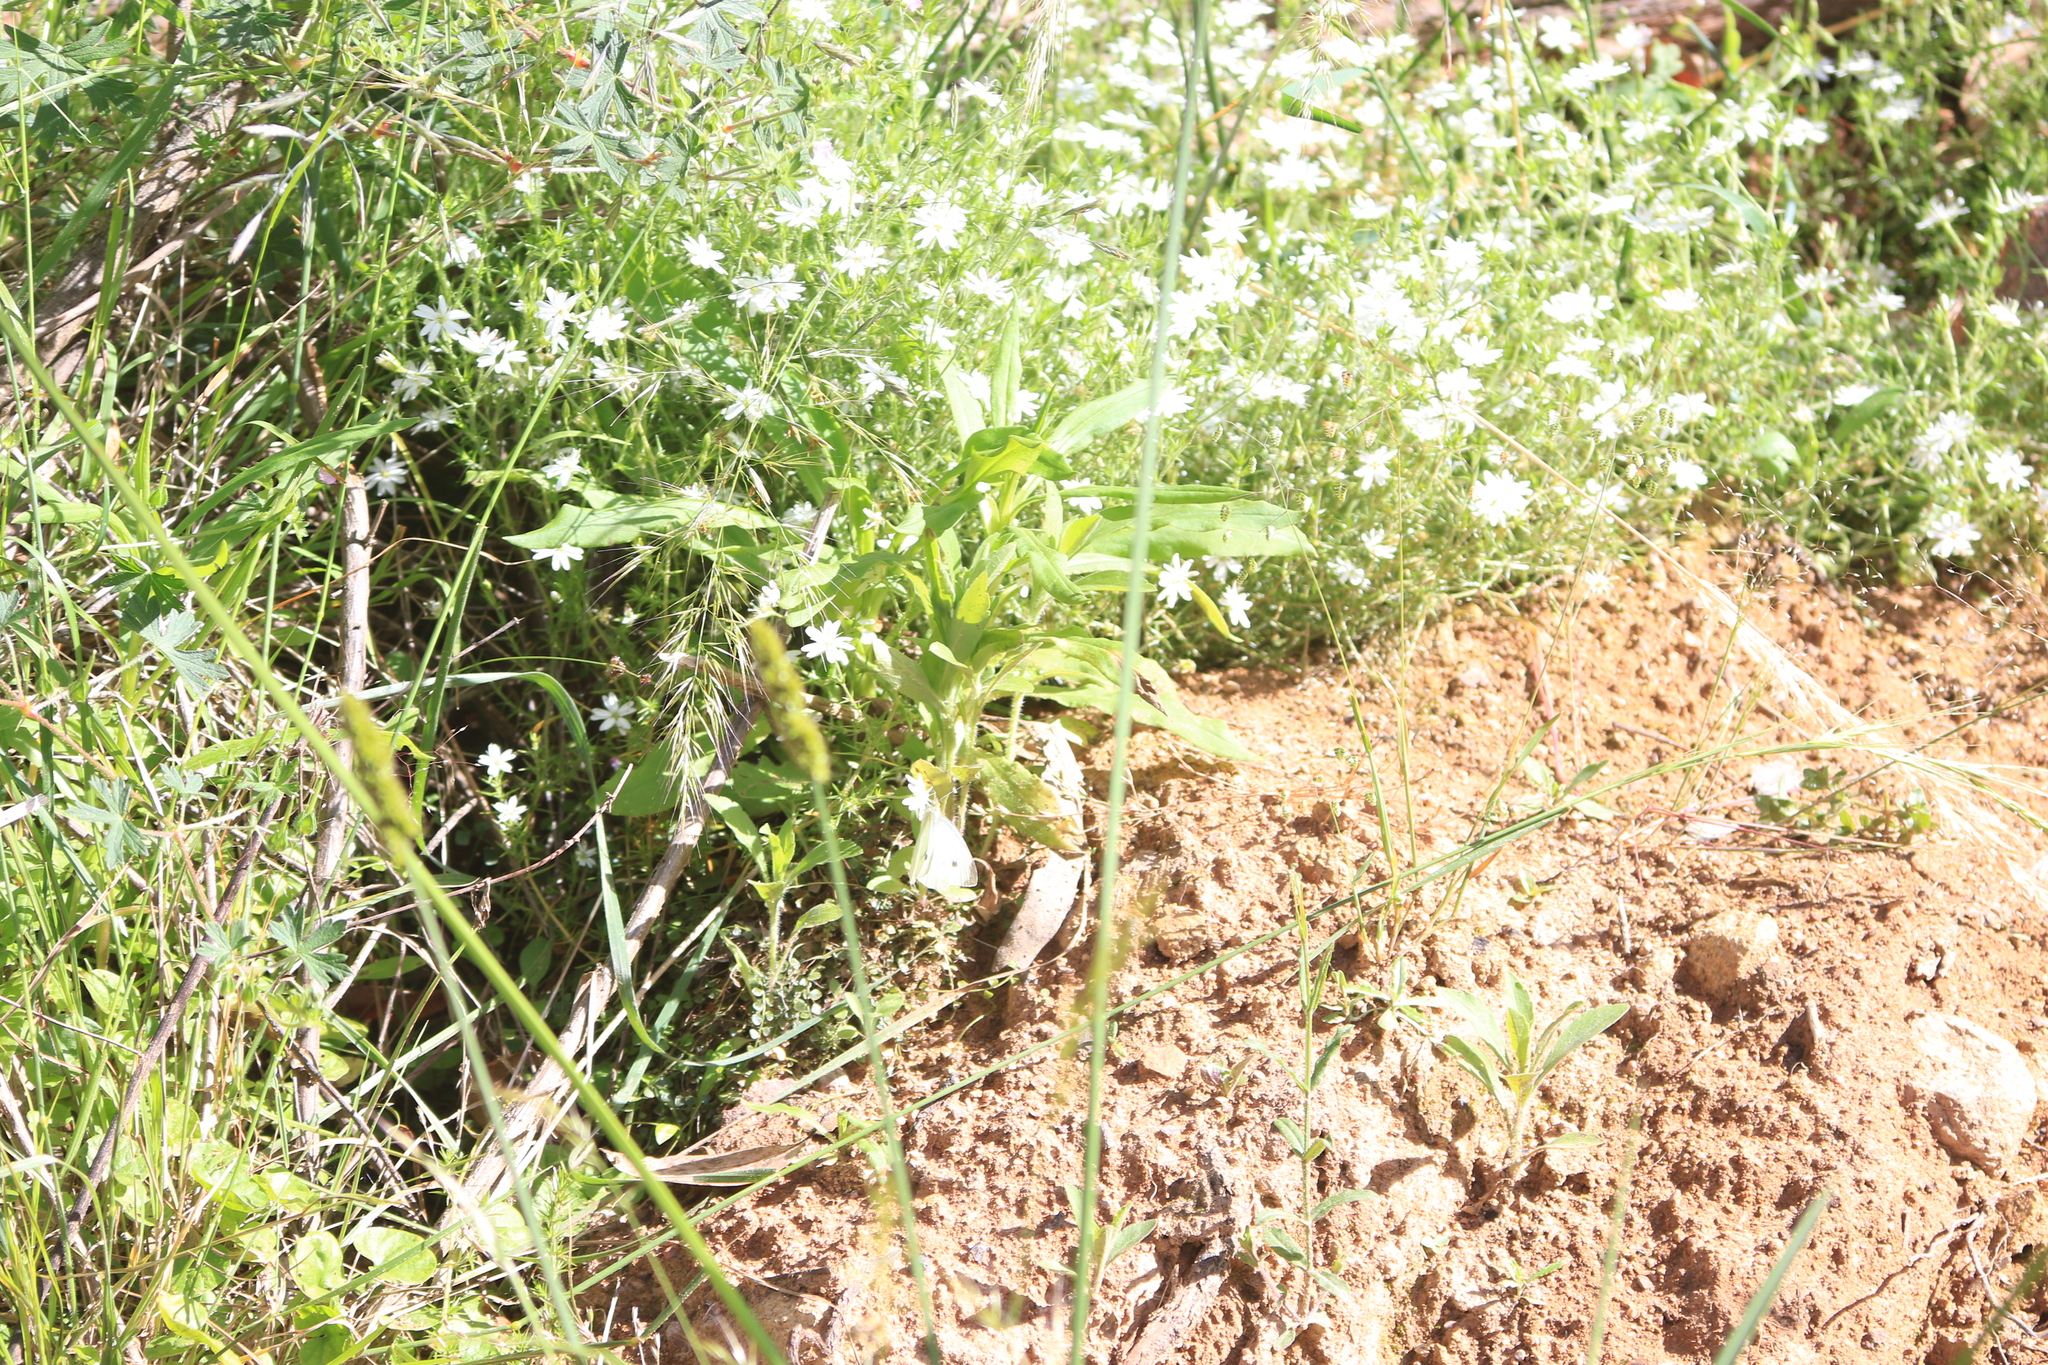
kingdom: Animalia
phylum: Arthropoda
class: Insecta
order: Lepidoptera
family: Pieridae
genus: Pieris
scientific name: Pieris rapae
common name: Small white
